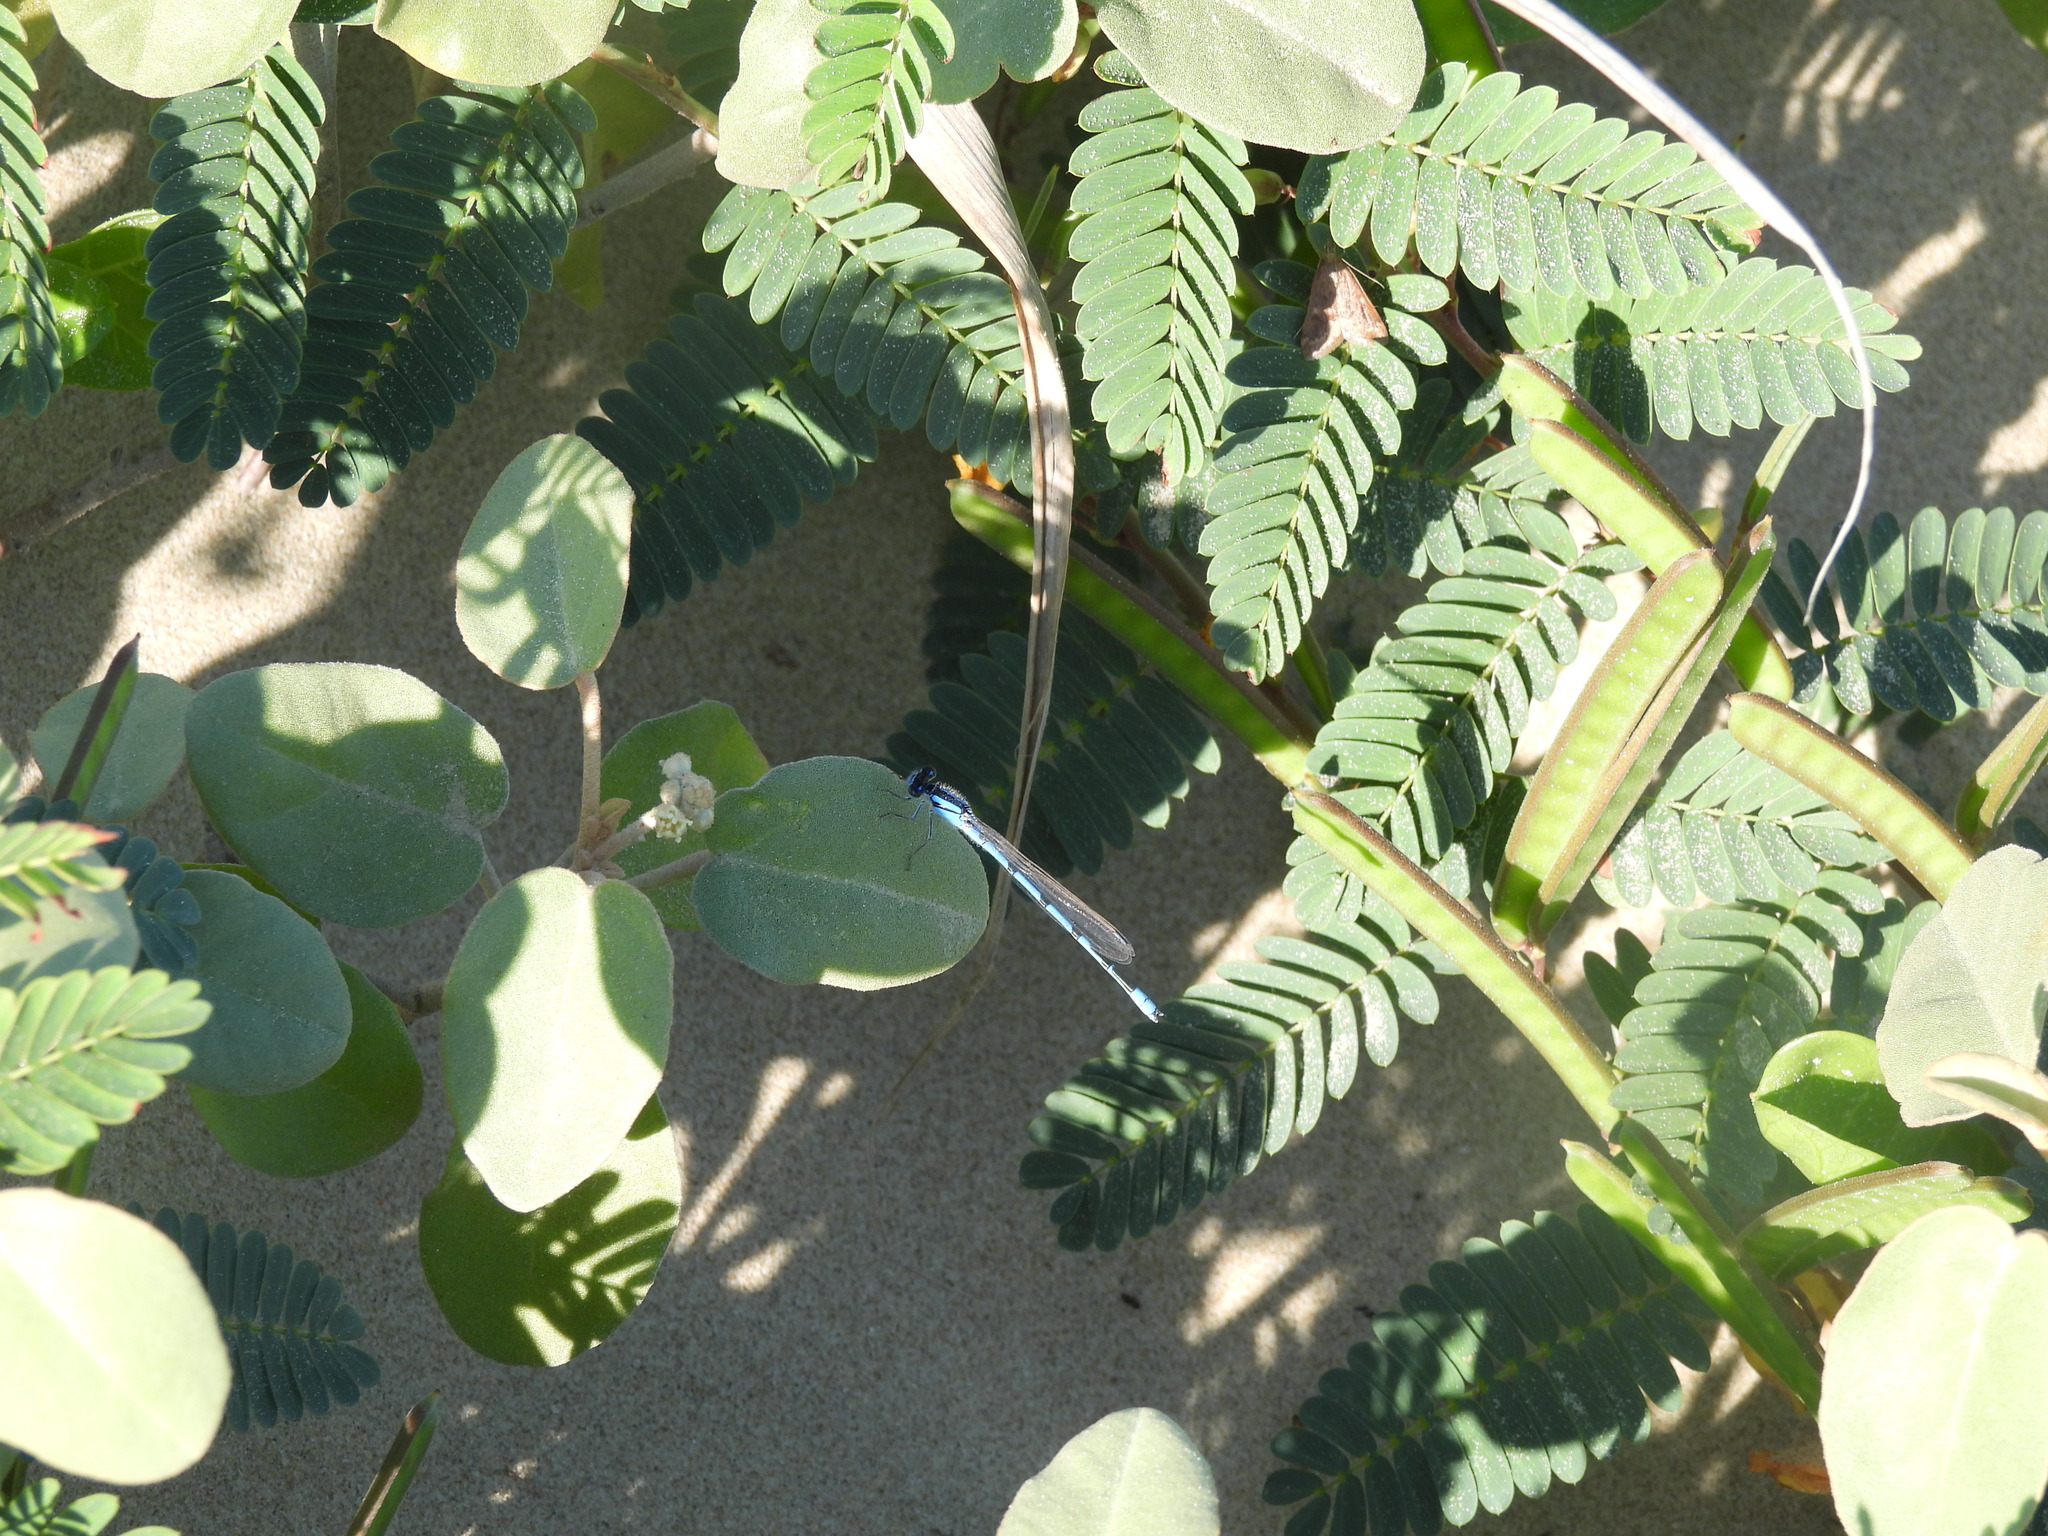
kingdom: Animalia
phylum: Arthropoda
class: Insecta
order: Odonata
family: Coenagrionidae
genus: Enallagma
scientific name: Enallagma civile
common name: Damselfly
